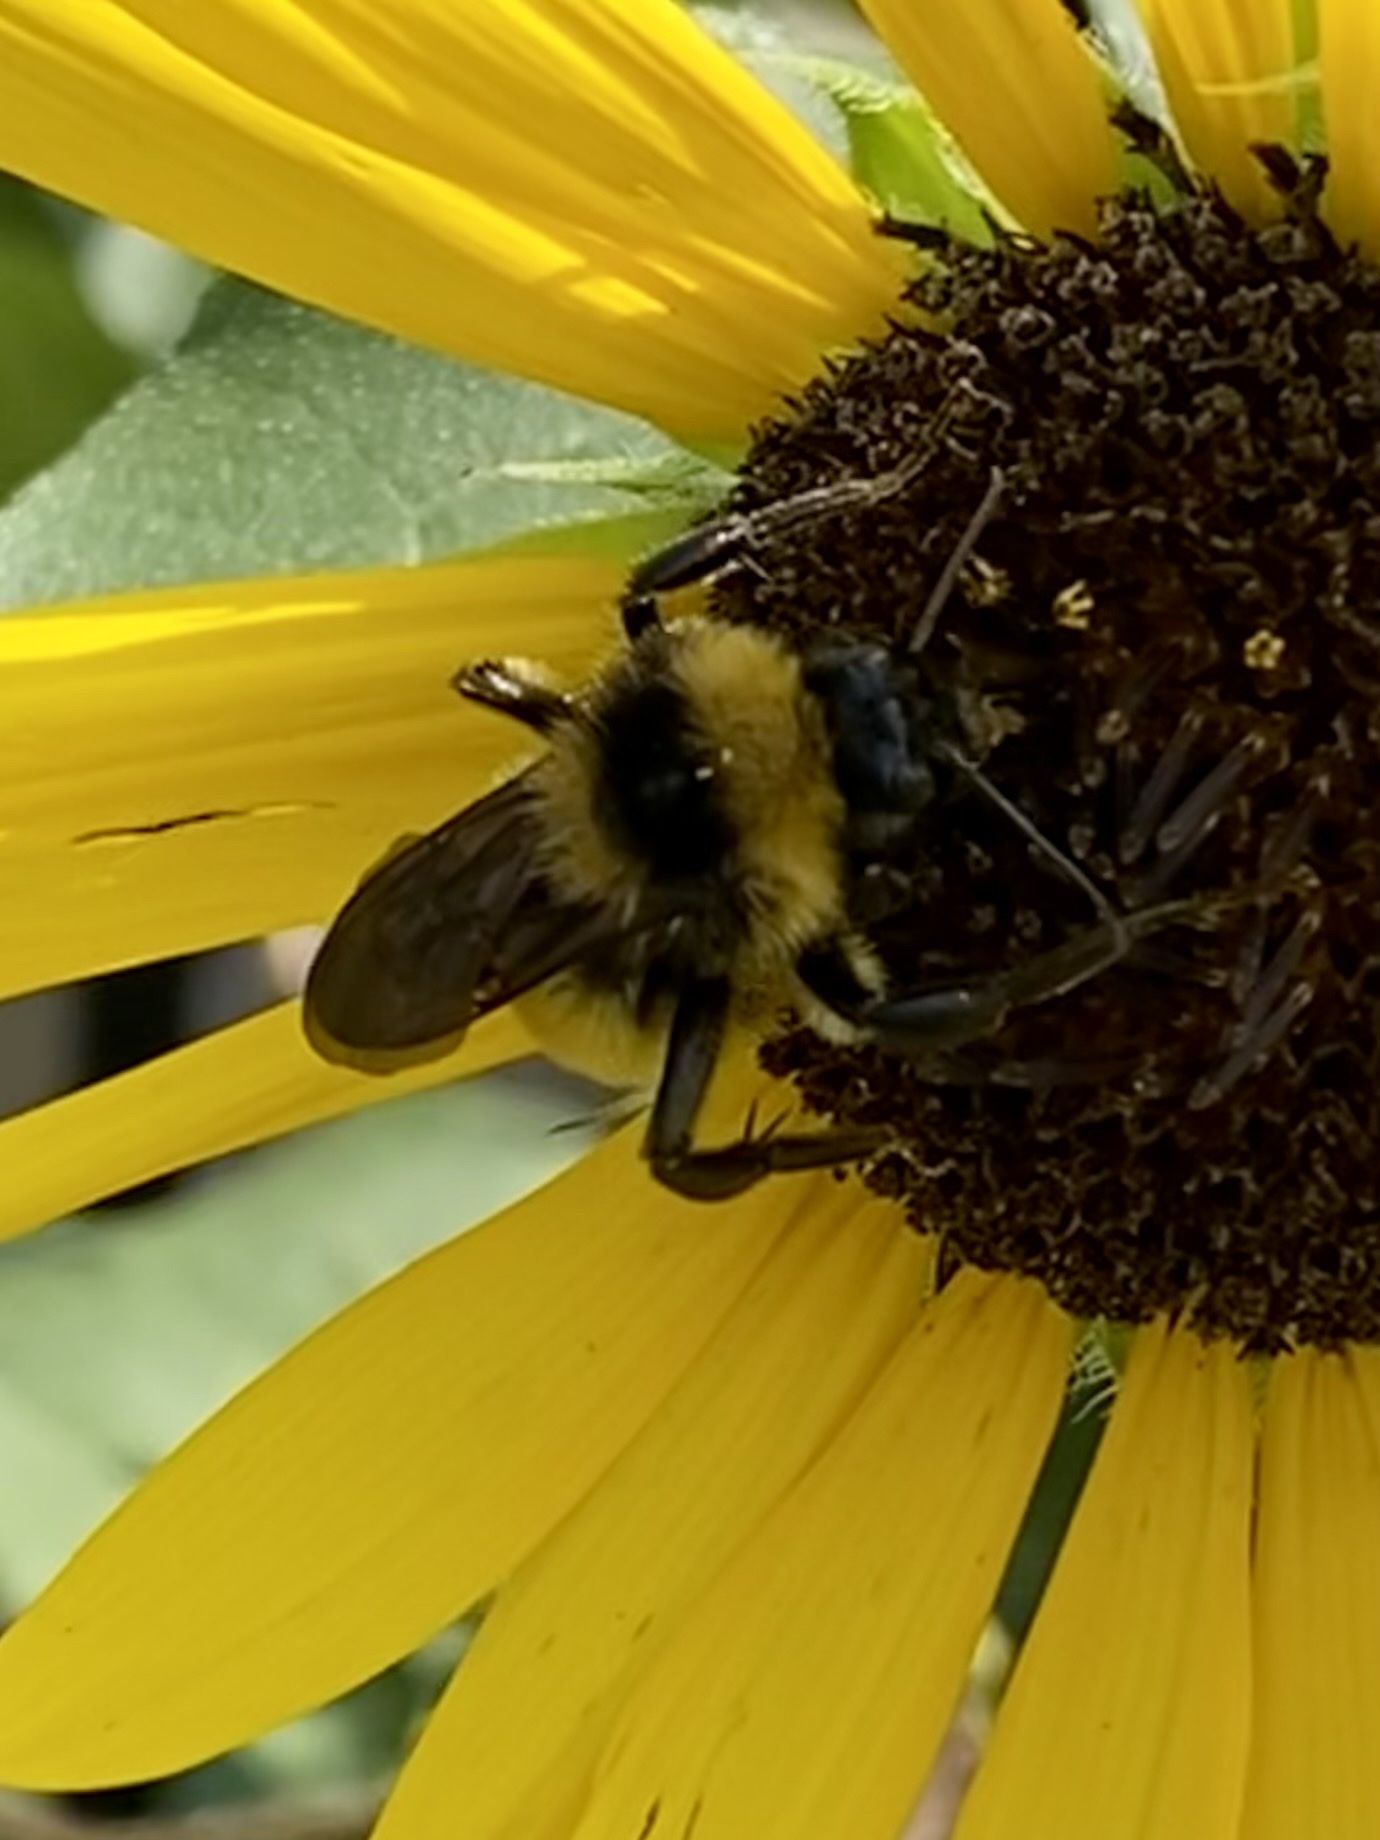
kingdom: Animalia
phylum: Arthropoda
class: Insecta
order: Hymenoptera
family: Apidae
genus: Bombus
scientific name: Bombus pensylvanicus
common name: Bumble bee
